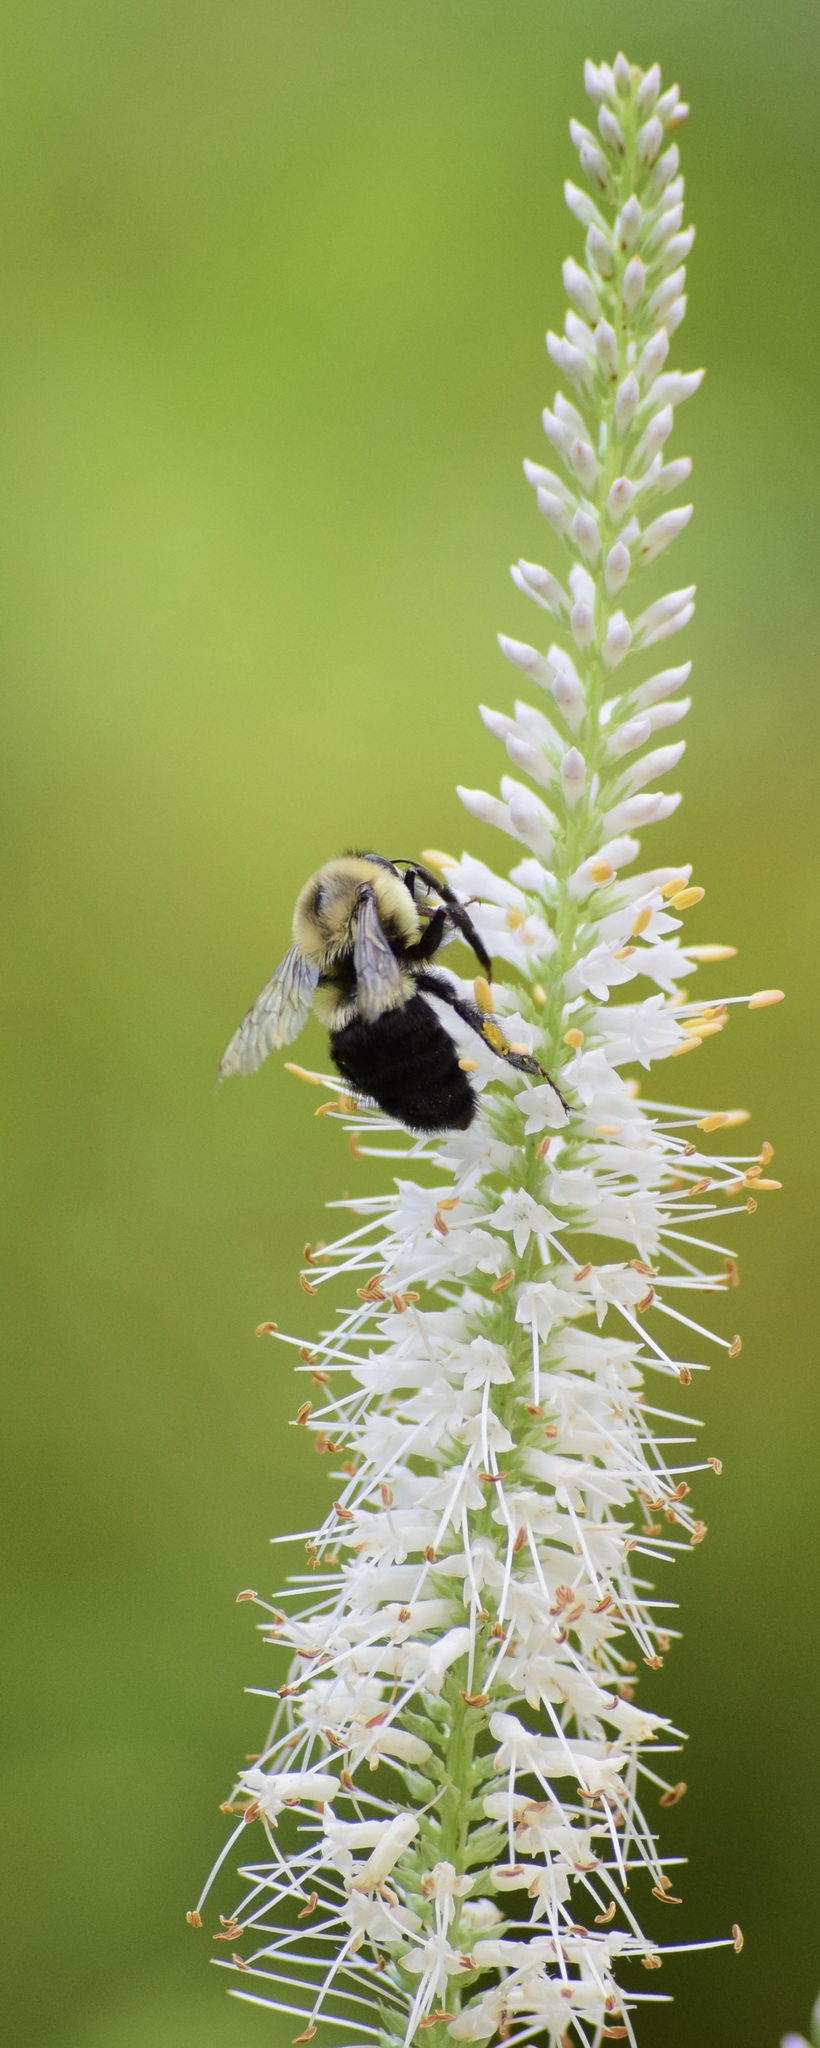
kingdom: Animalia
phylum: Arthropoda
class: Insecta
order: Hymenoptera
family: Apidae
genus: Bombus
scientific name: Bombus impatiens
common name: Common eastern bumble bee
